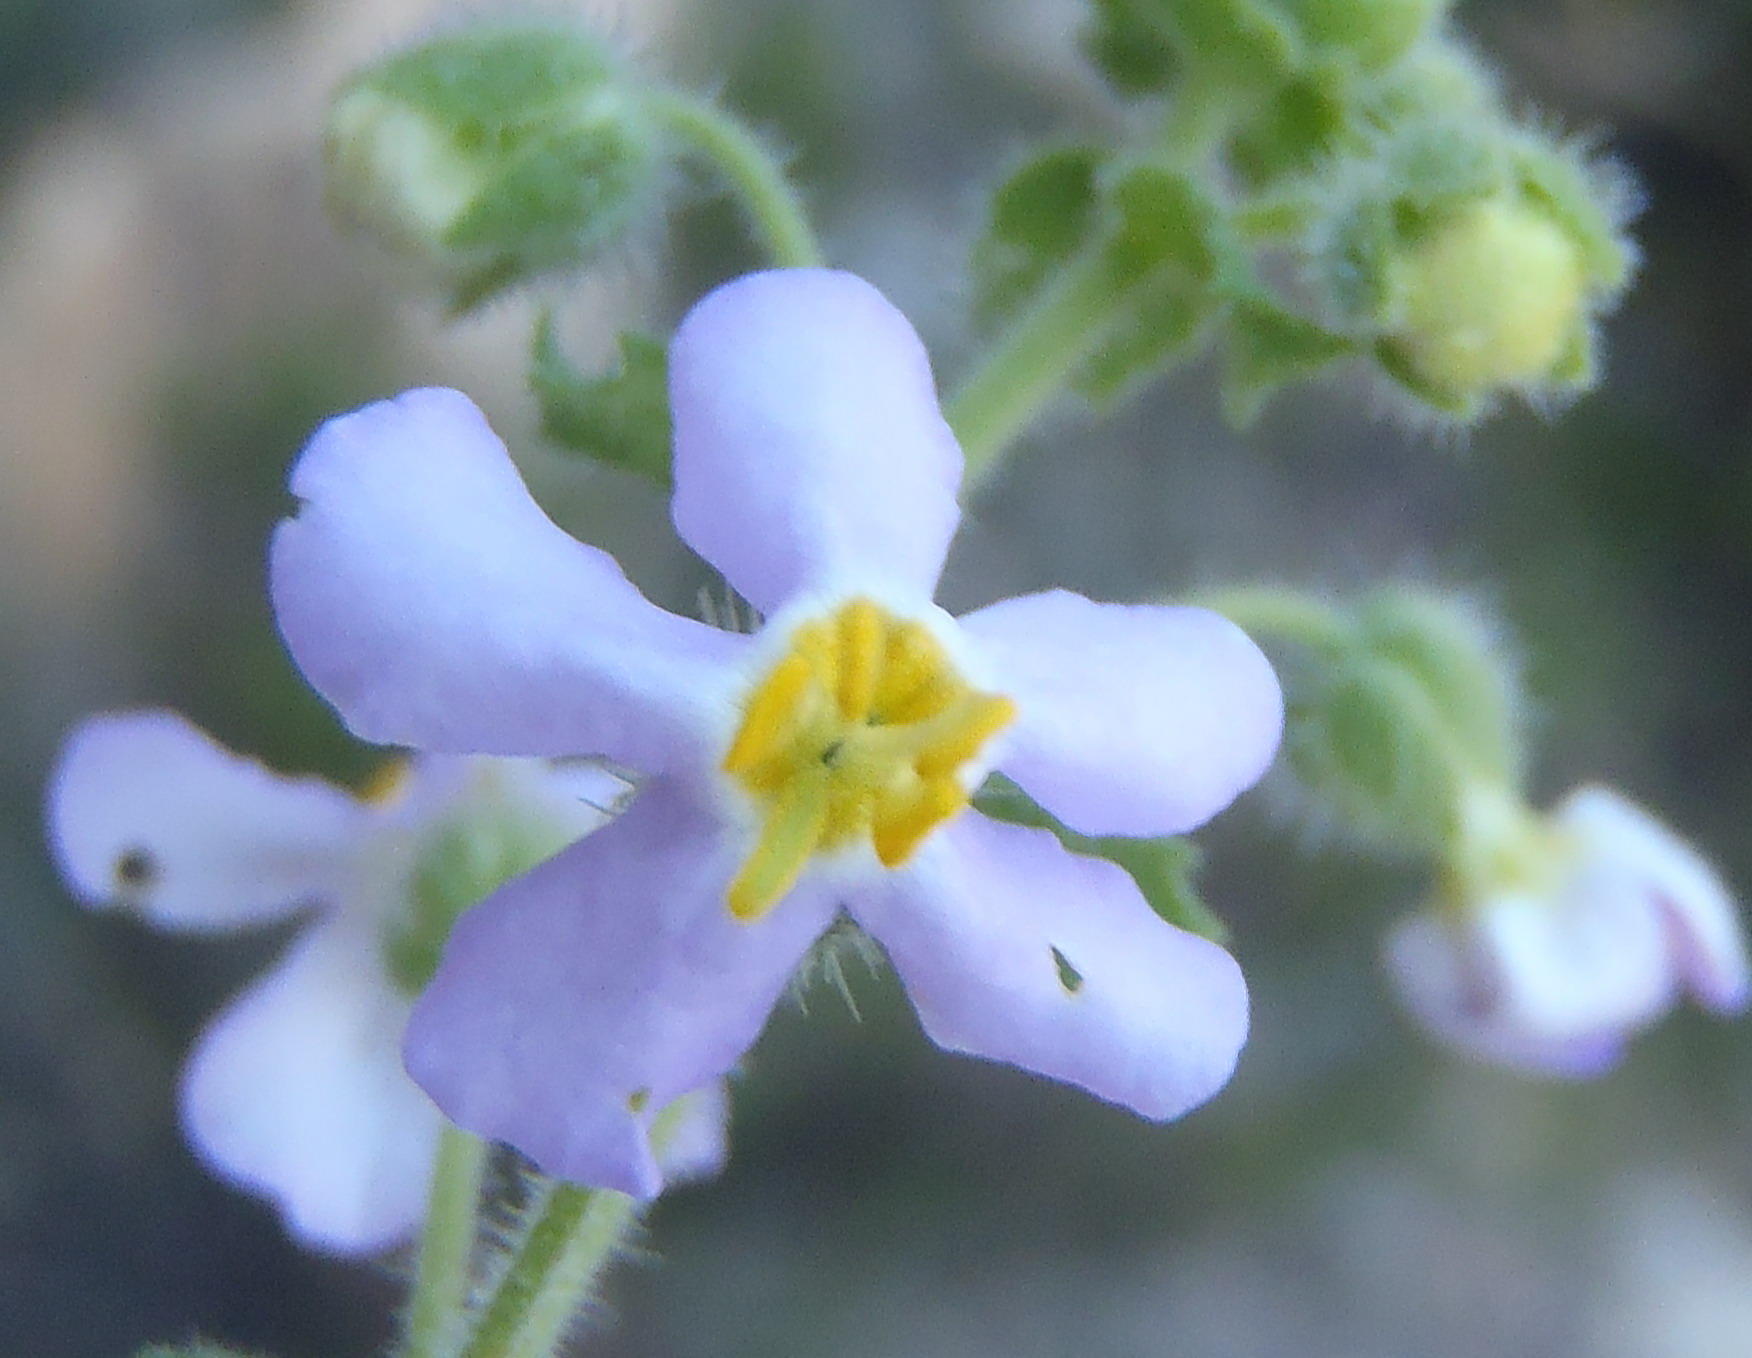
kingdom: Plantae
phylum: Tracheophyta
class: Magnoliopsida
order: Lamiales
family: Scrophulariaceae
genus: Chaenostoma
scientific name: Chaenostoma caeruleum
